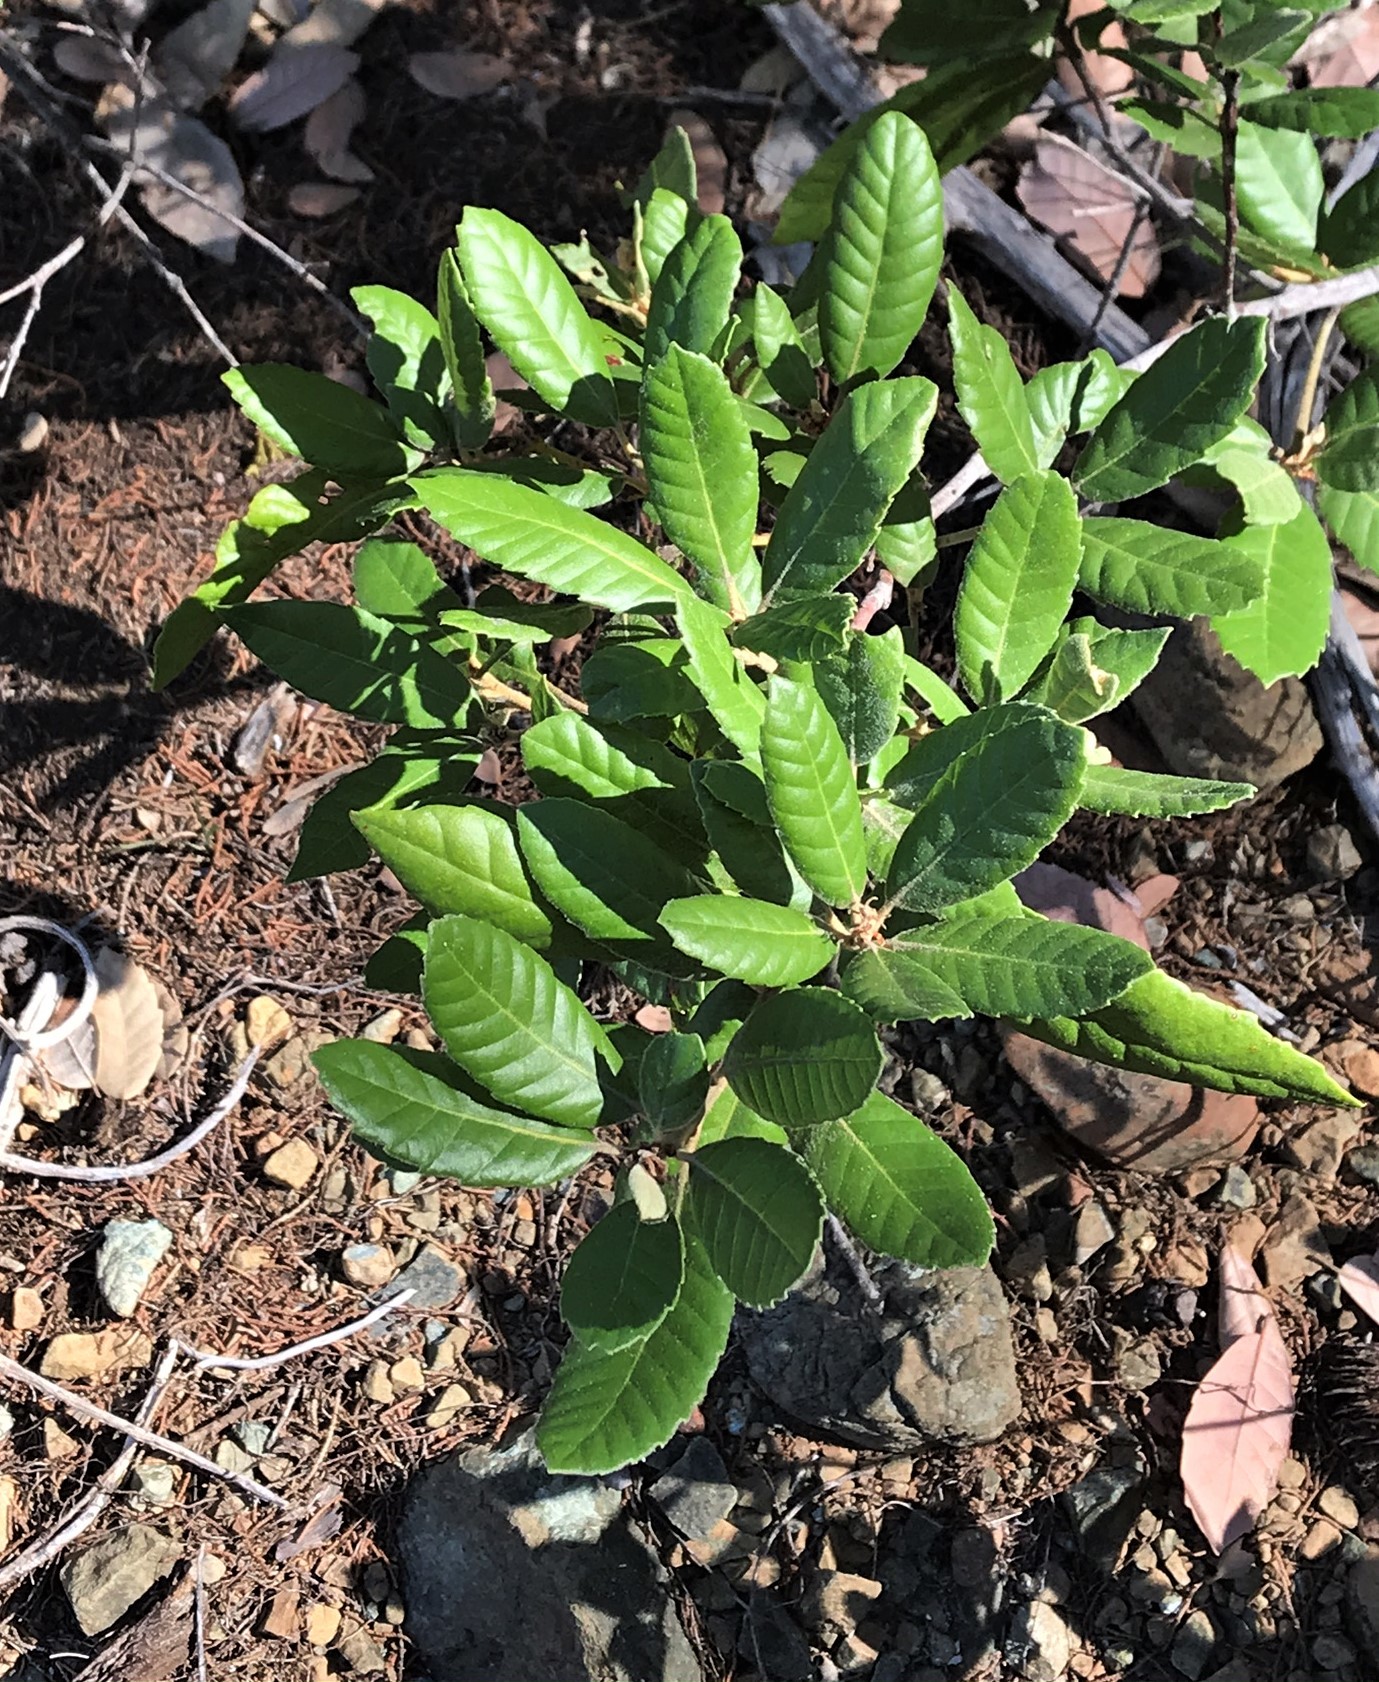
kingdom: Plantae
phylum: Tracheophyta
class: Magnoliopsida
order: Fagales
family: Fagaceae
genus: Notholithocarpus
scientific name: Notholithocarpus densiflorus
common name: Tan bark oak
